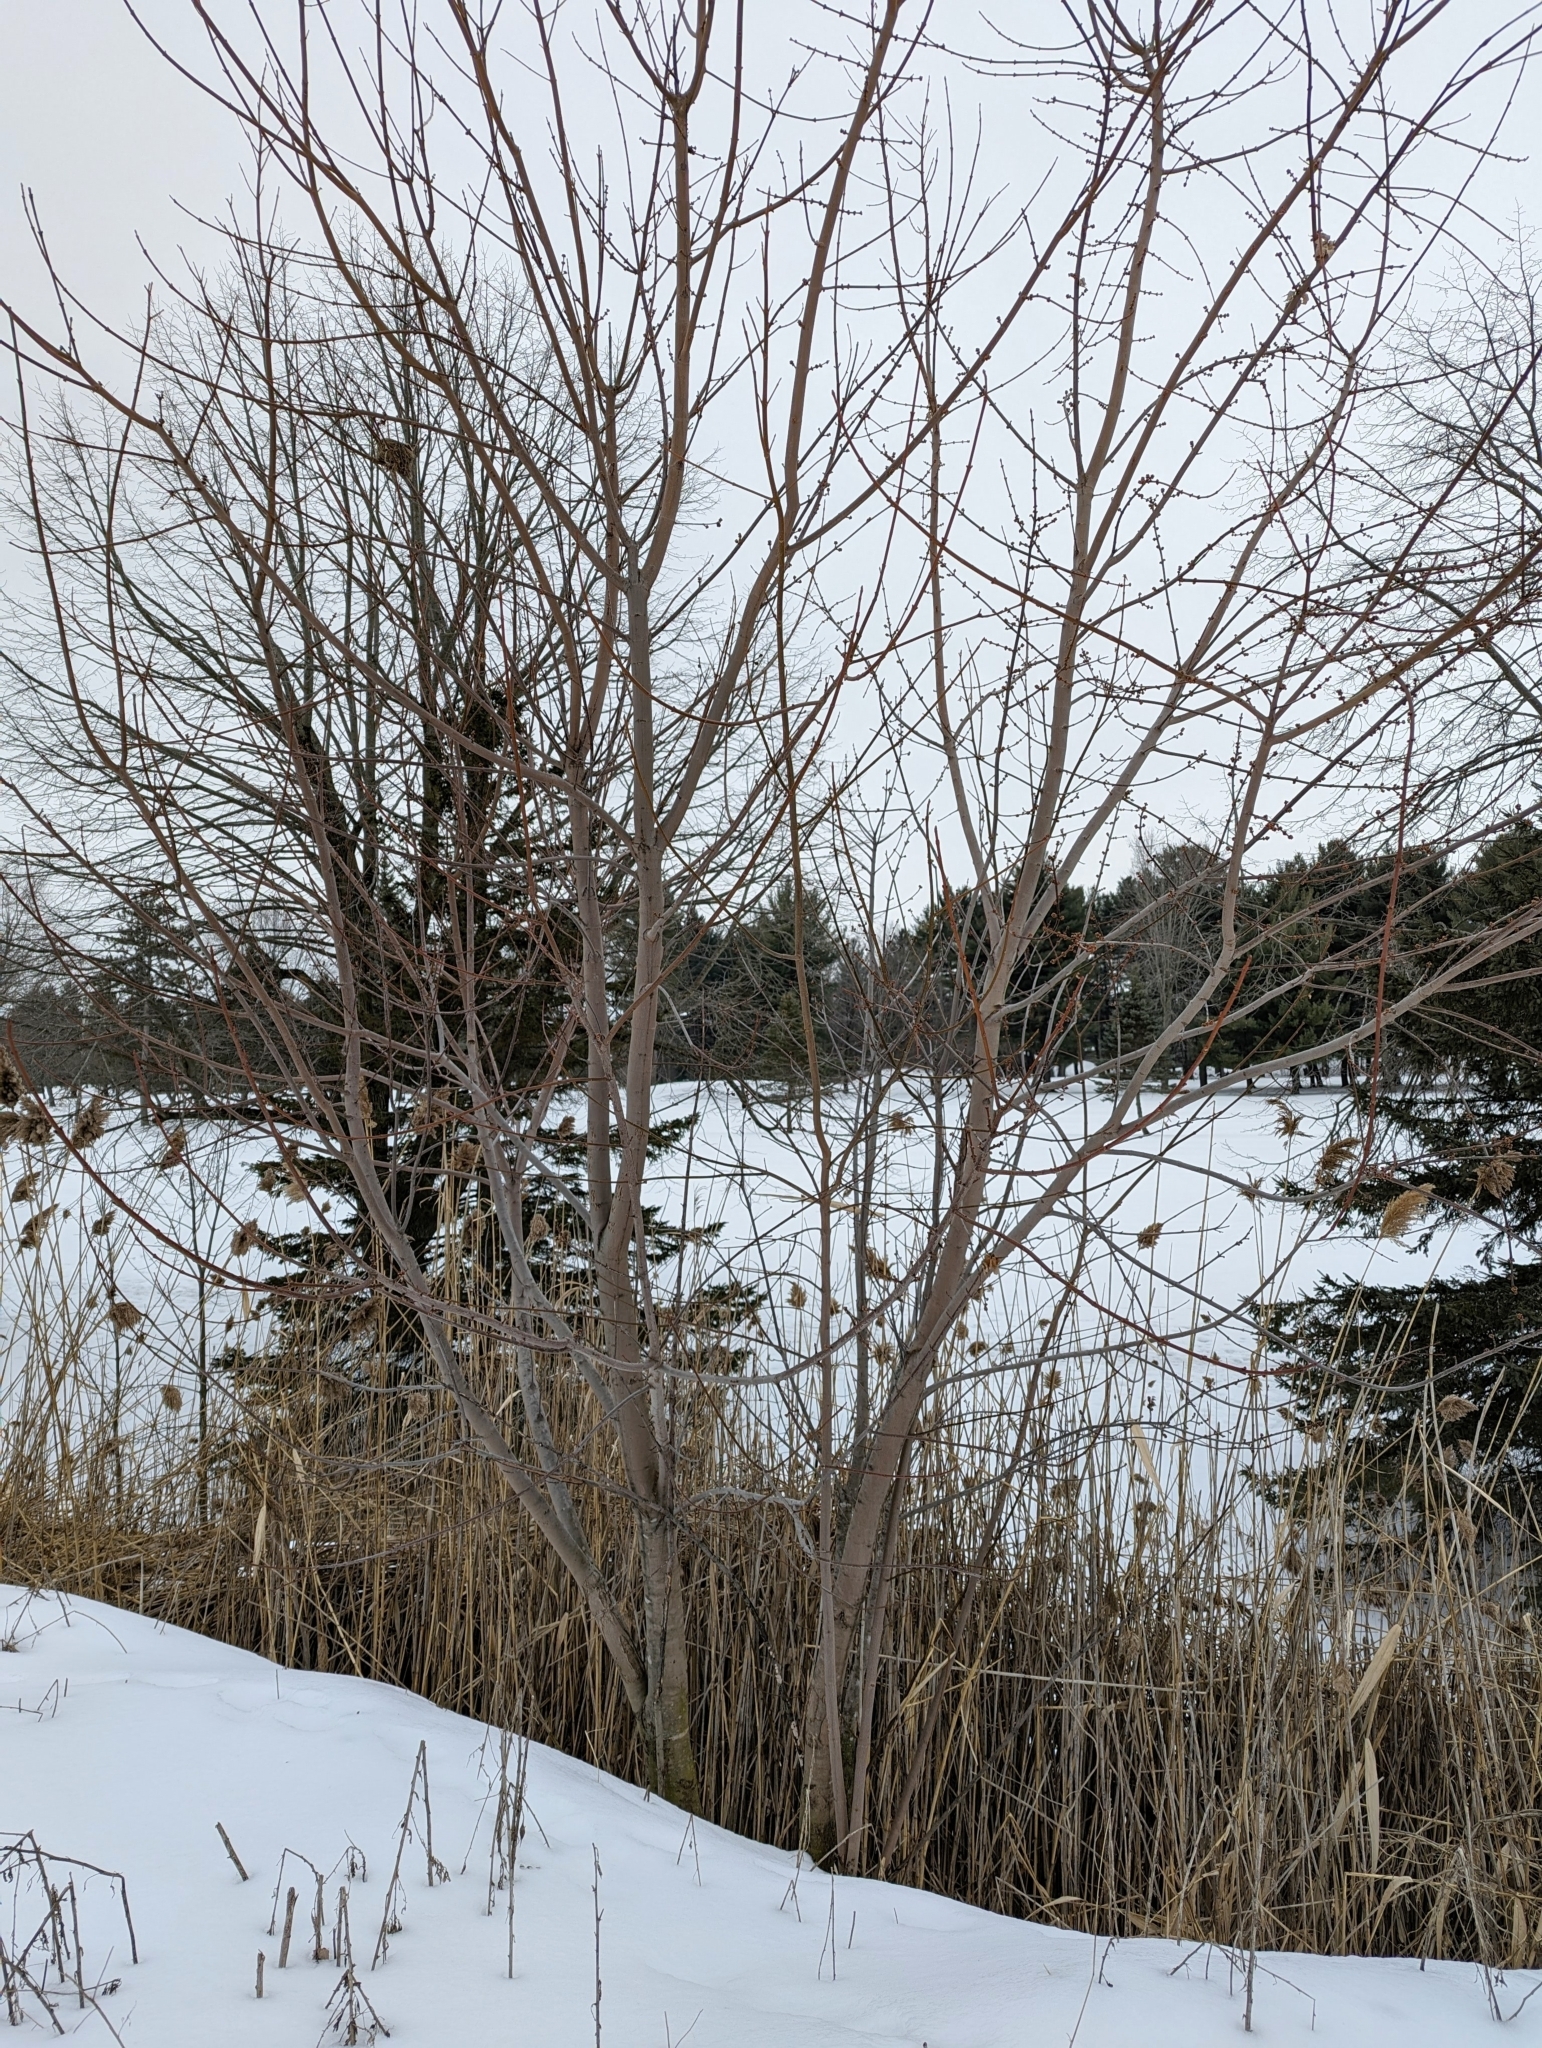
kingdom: Plantae
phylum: Tracheophyta
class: Magnoliopsida
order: Sapindales
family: Sapindaceae
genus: Acer
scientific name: Acer saccharinum
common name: Silver maple
